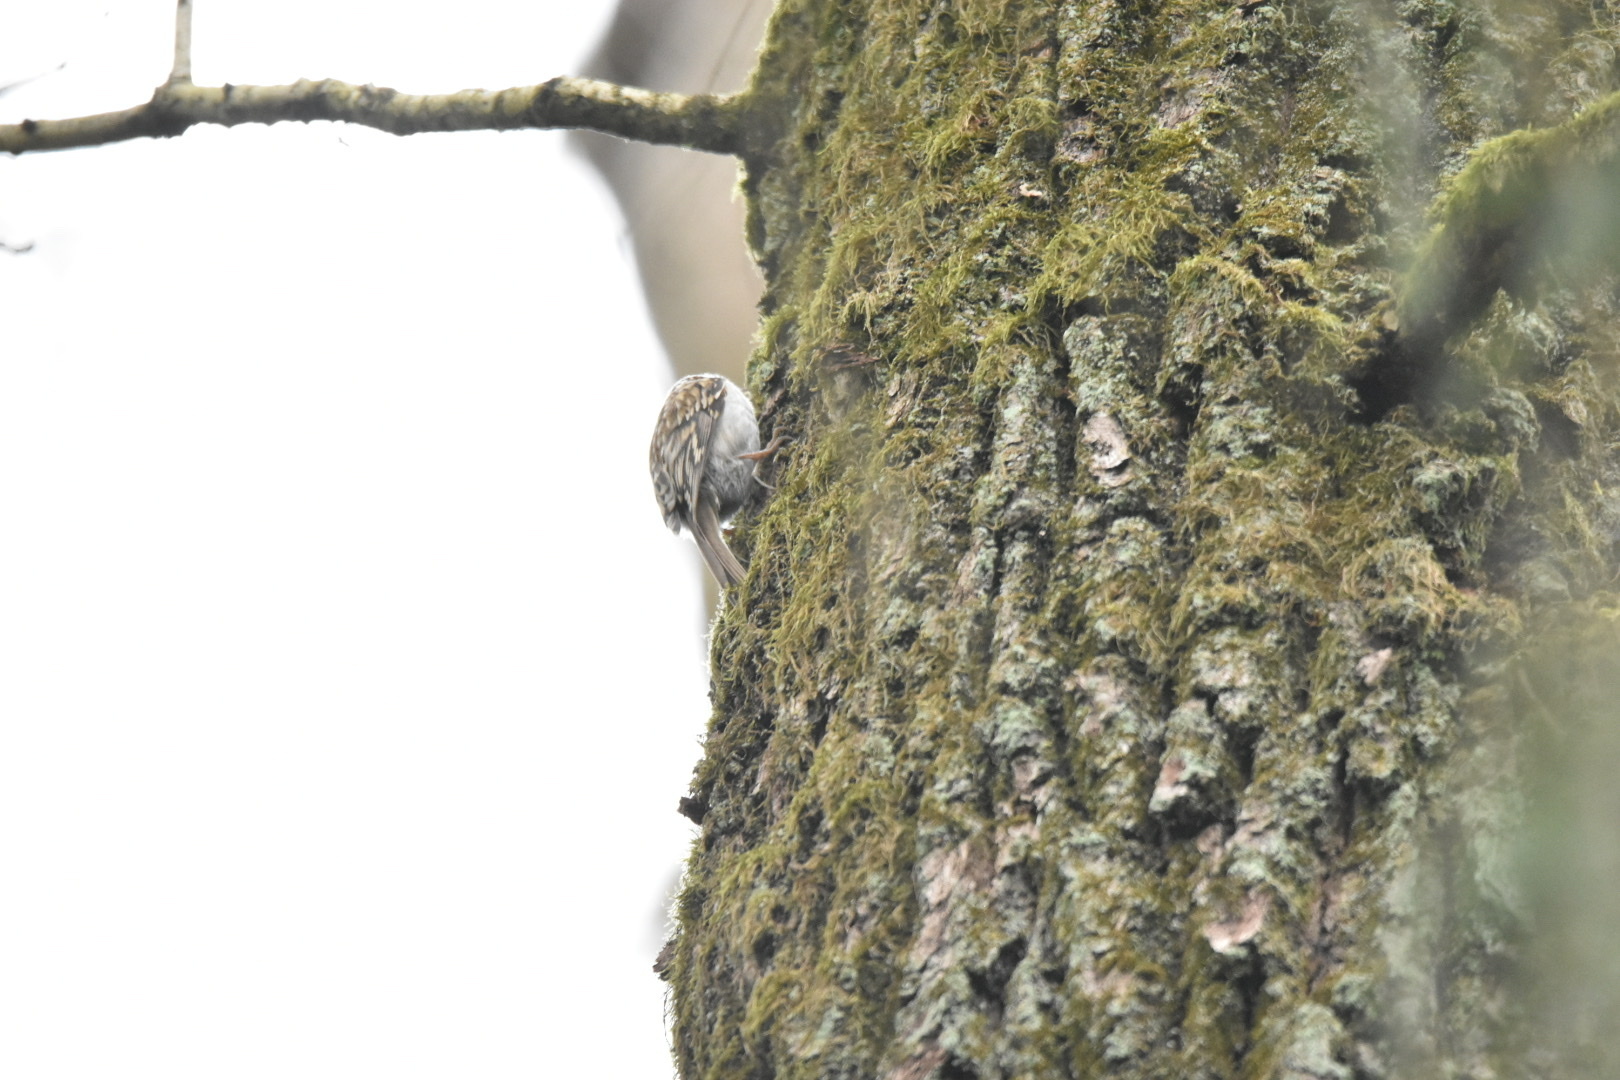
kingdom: Animalia
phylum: Chordata
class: Aves
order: Passeriformes
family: Certhiidae
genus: Certhia
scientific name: Certhia familiaris
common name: Eurasian treecreeper
